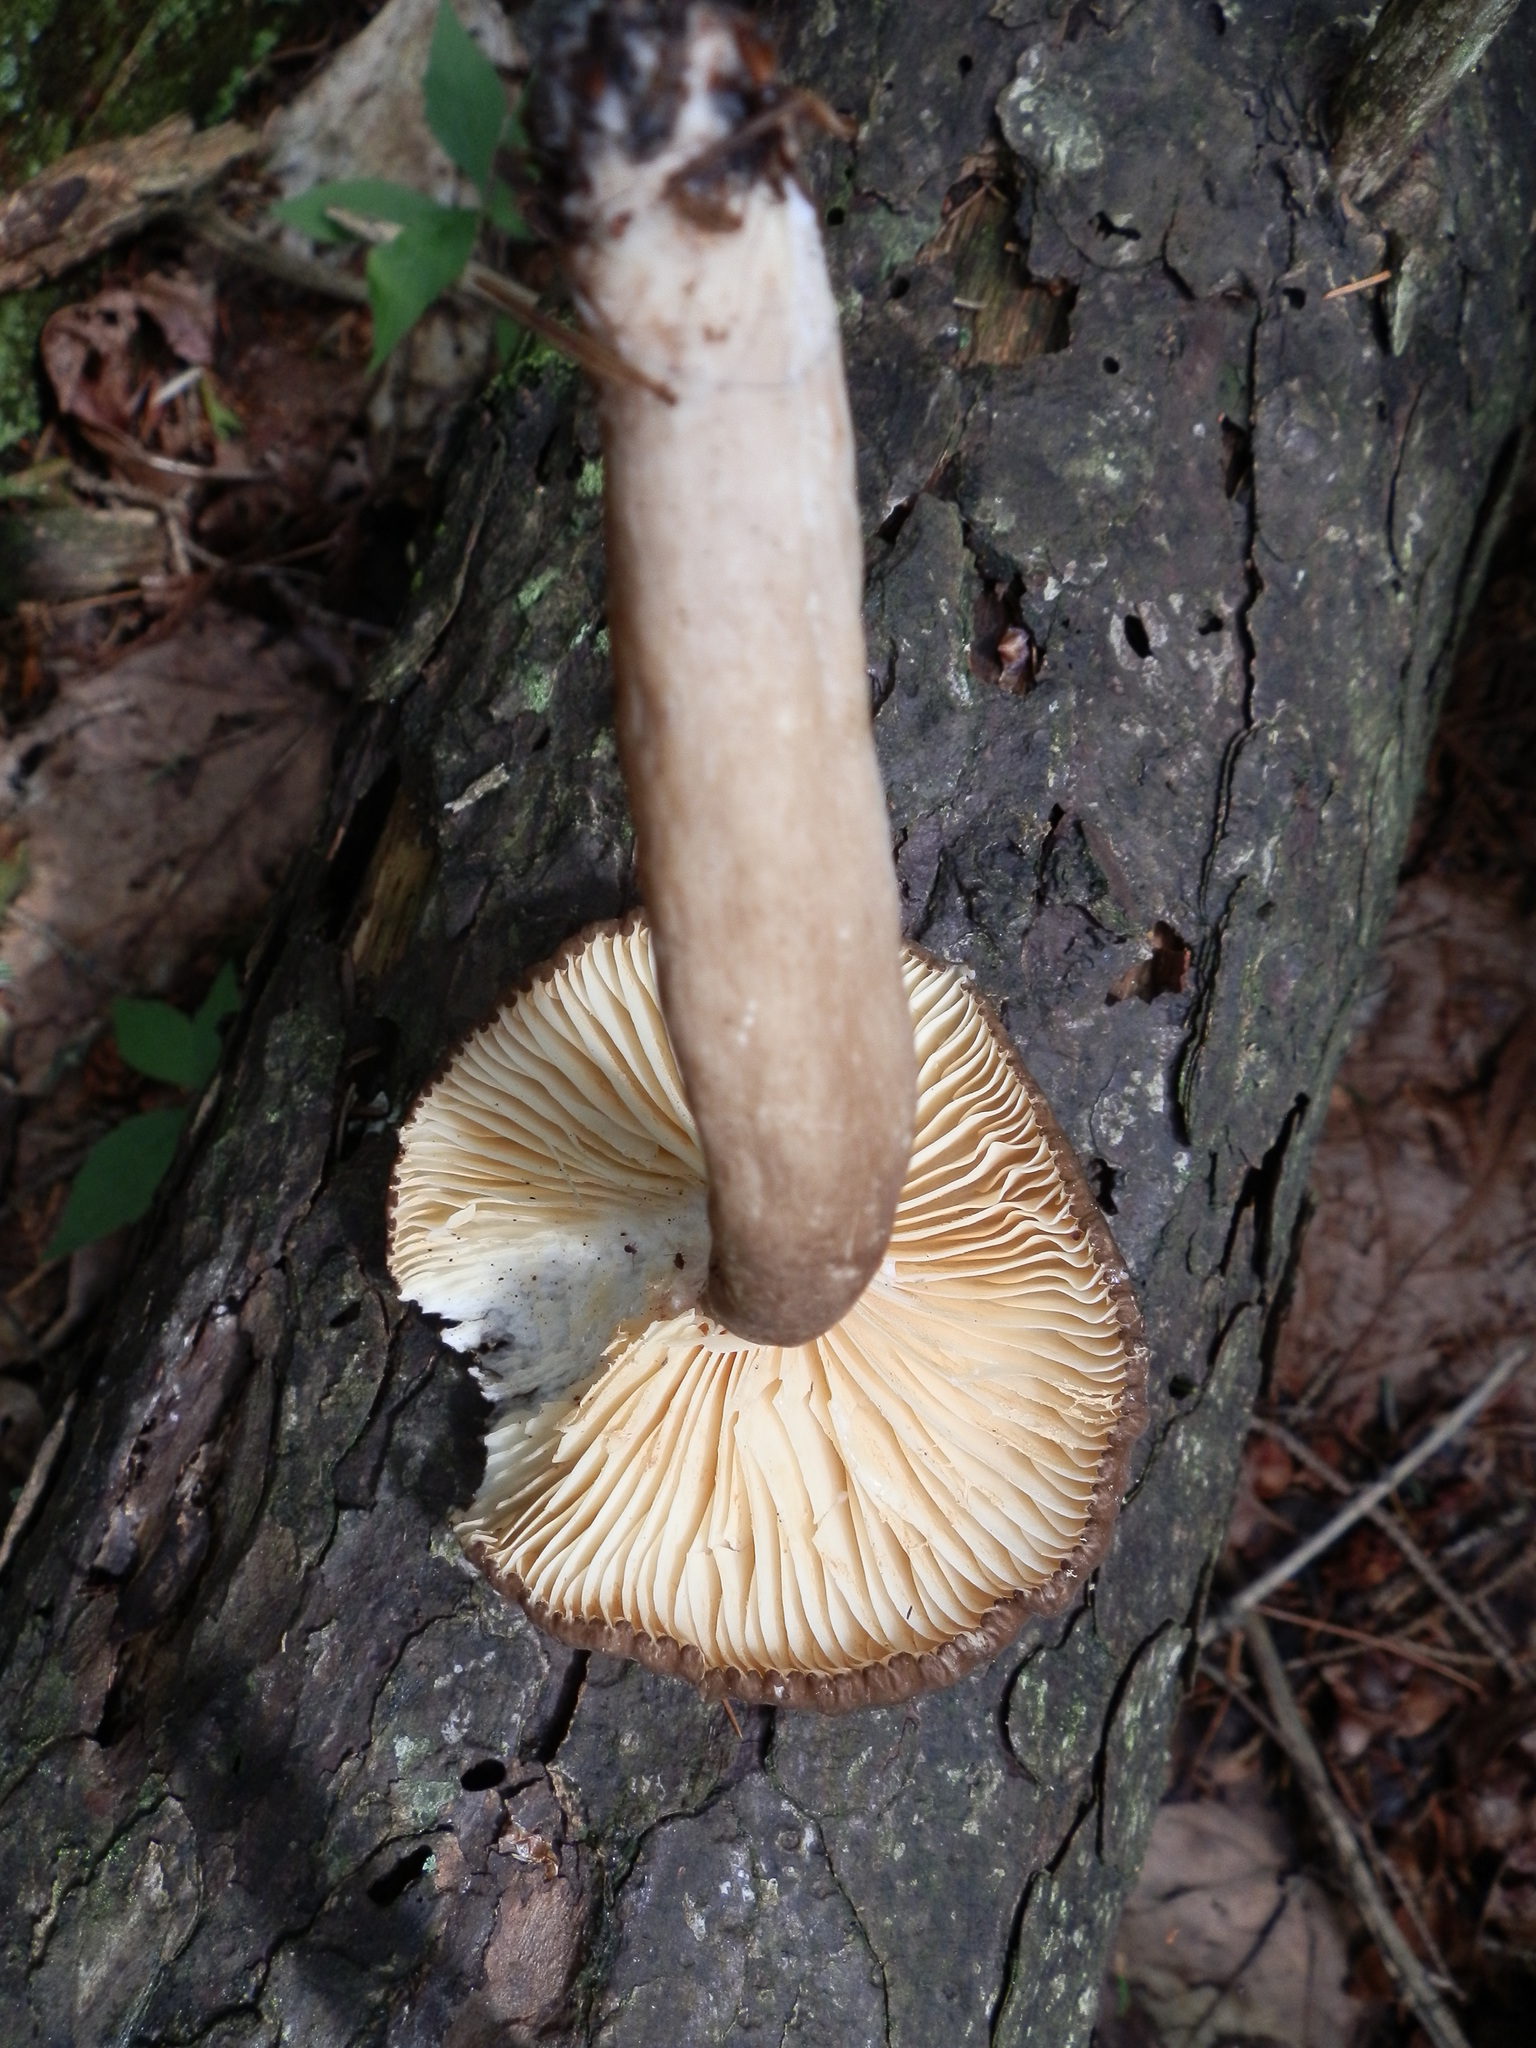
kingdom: Fungi
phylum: Basidiomycota
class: Agaricomycetes
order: Russulales
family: Russulaceae
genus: Lactarius
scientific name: Lactarius nigroviolascens
